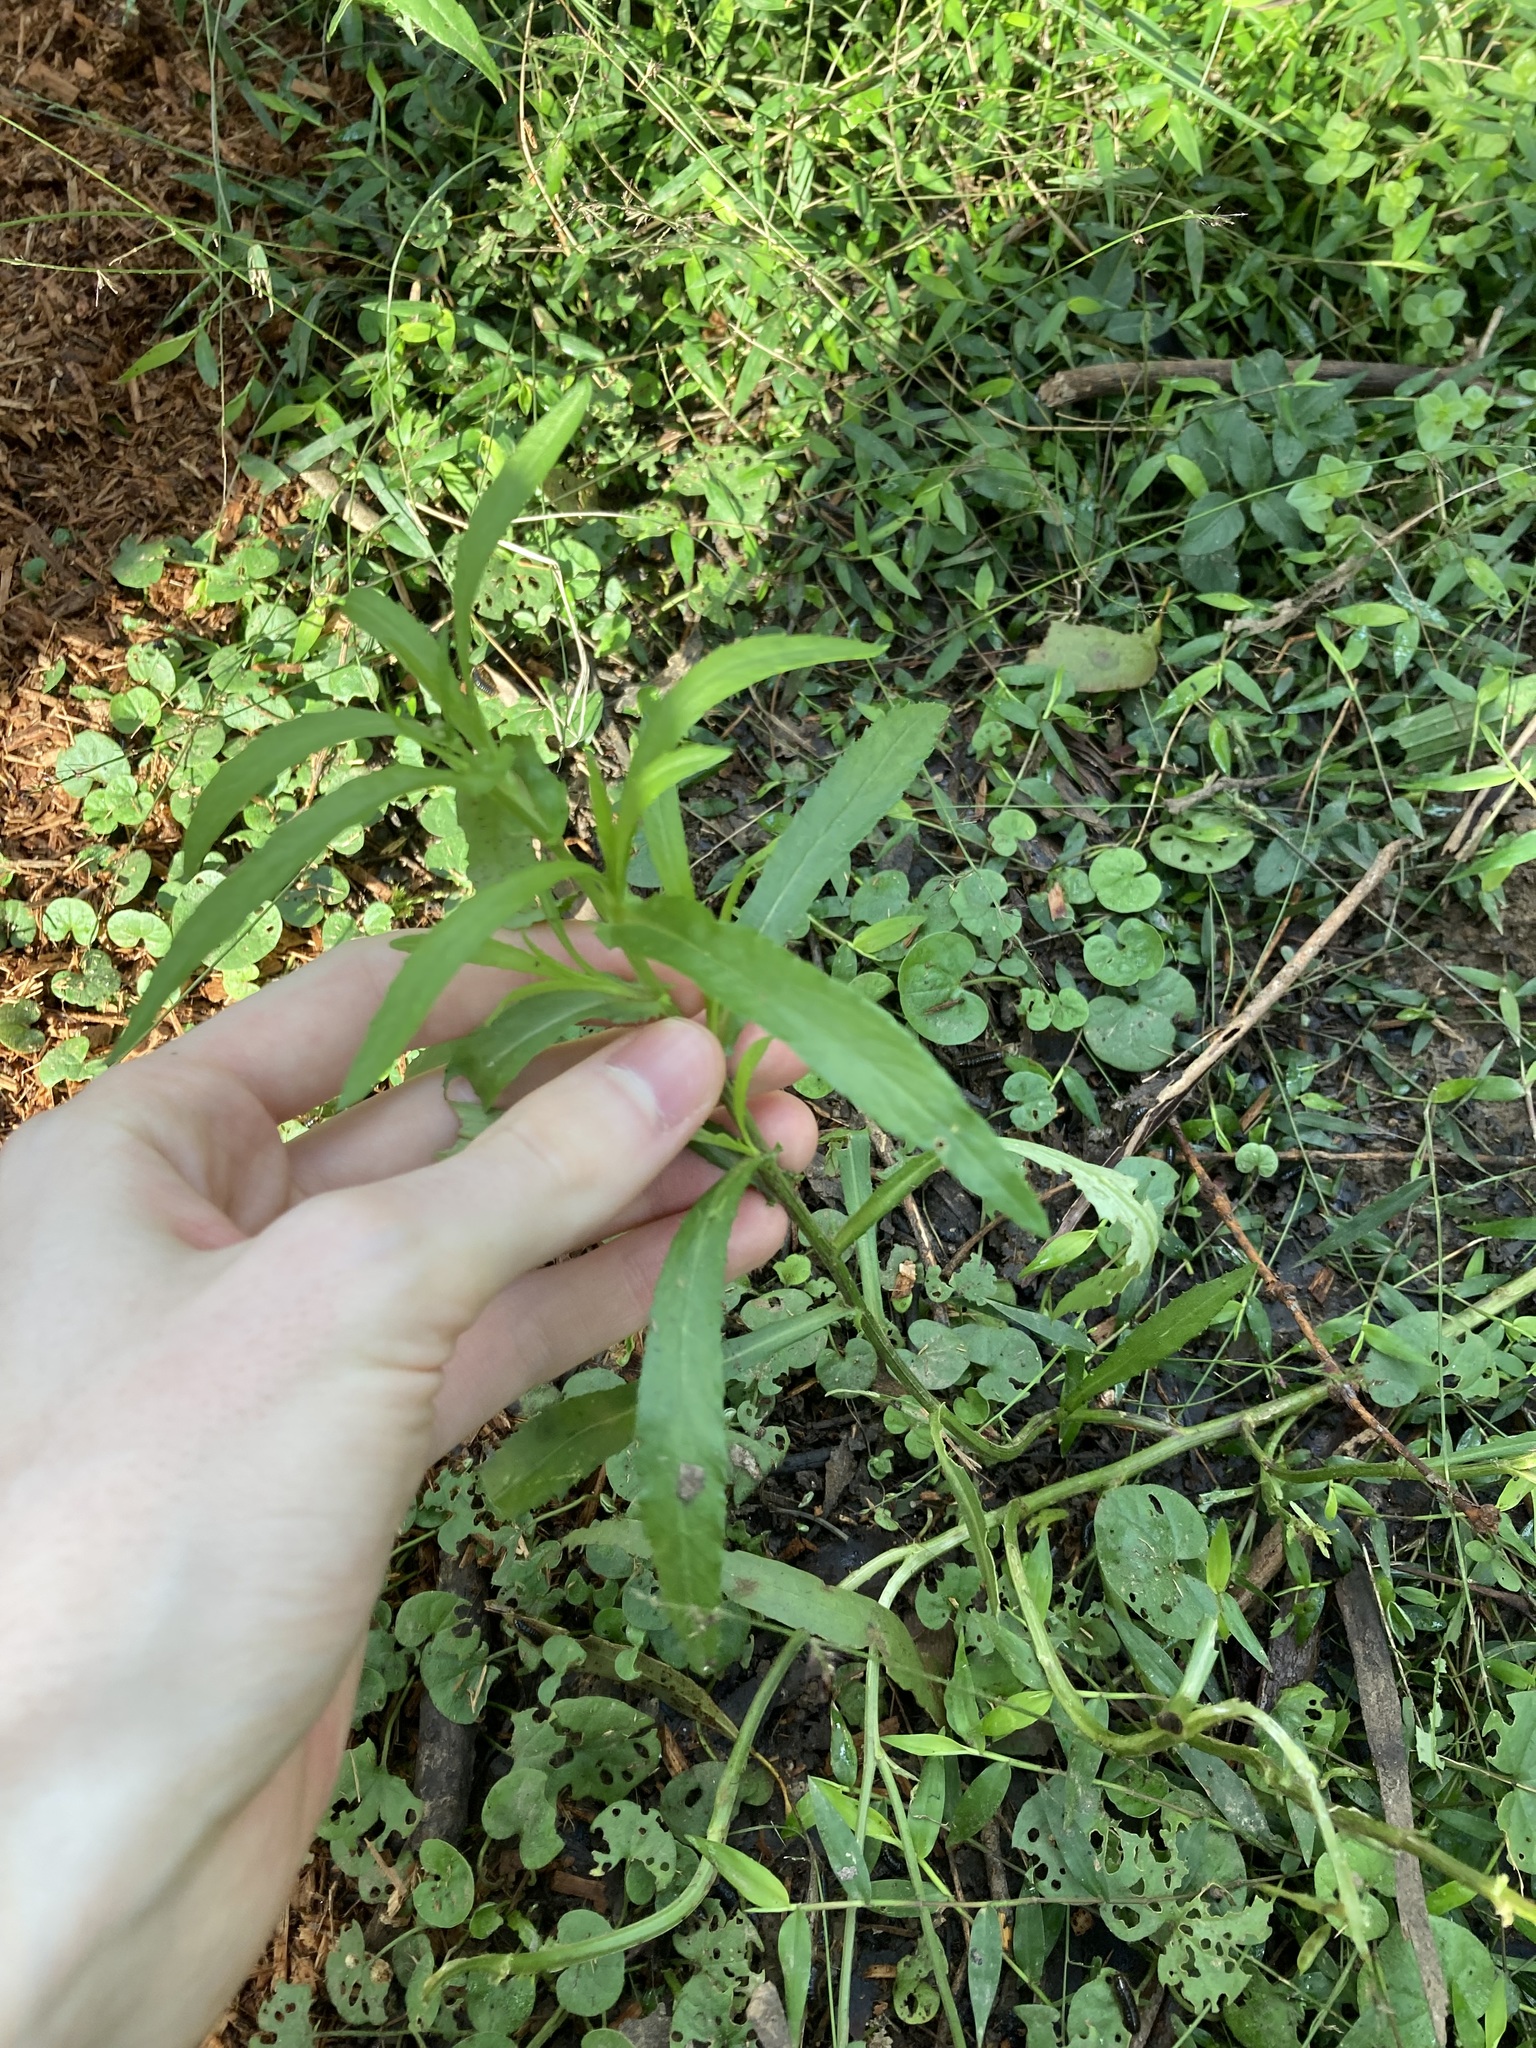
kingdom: Plantae
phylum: Tracheophyta
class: Magnoliopsida
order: Asterales
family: Asteraceae
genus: Senecio
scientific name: Senecio madagascariensis
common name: Madagascar ragwort
